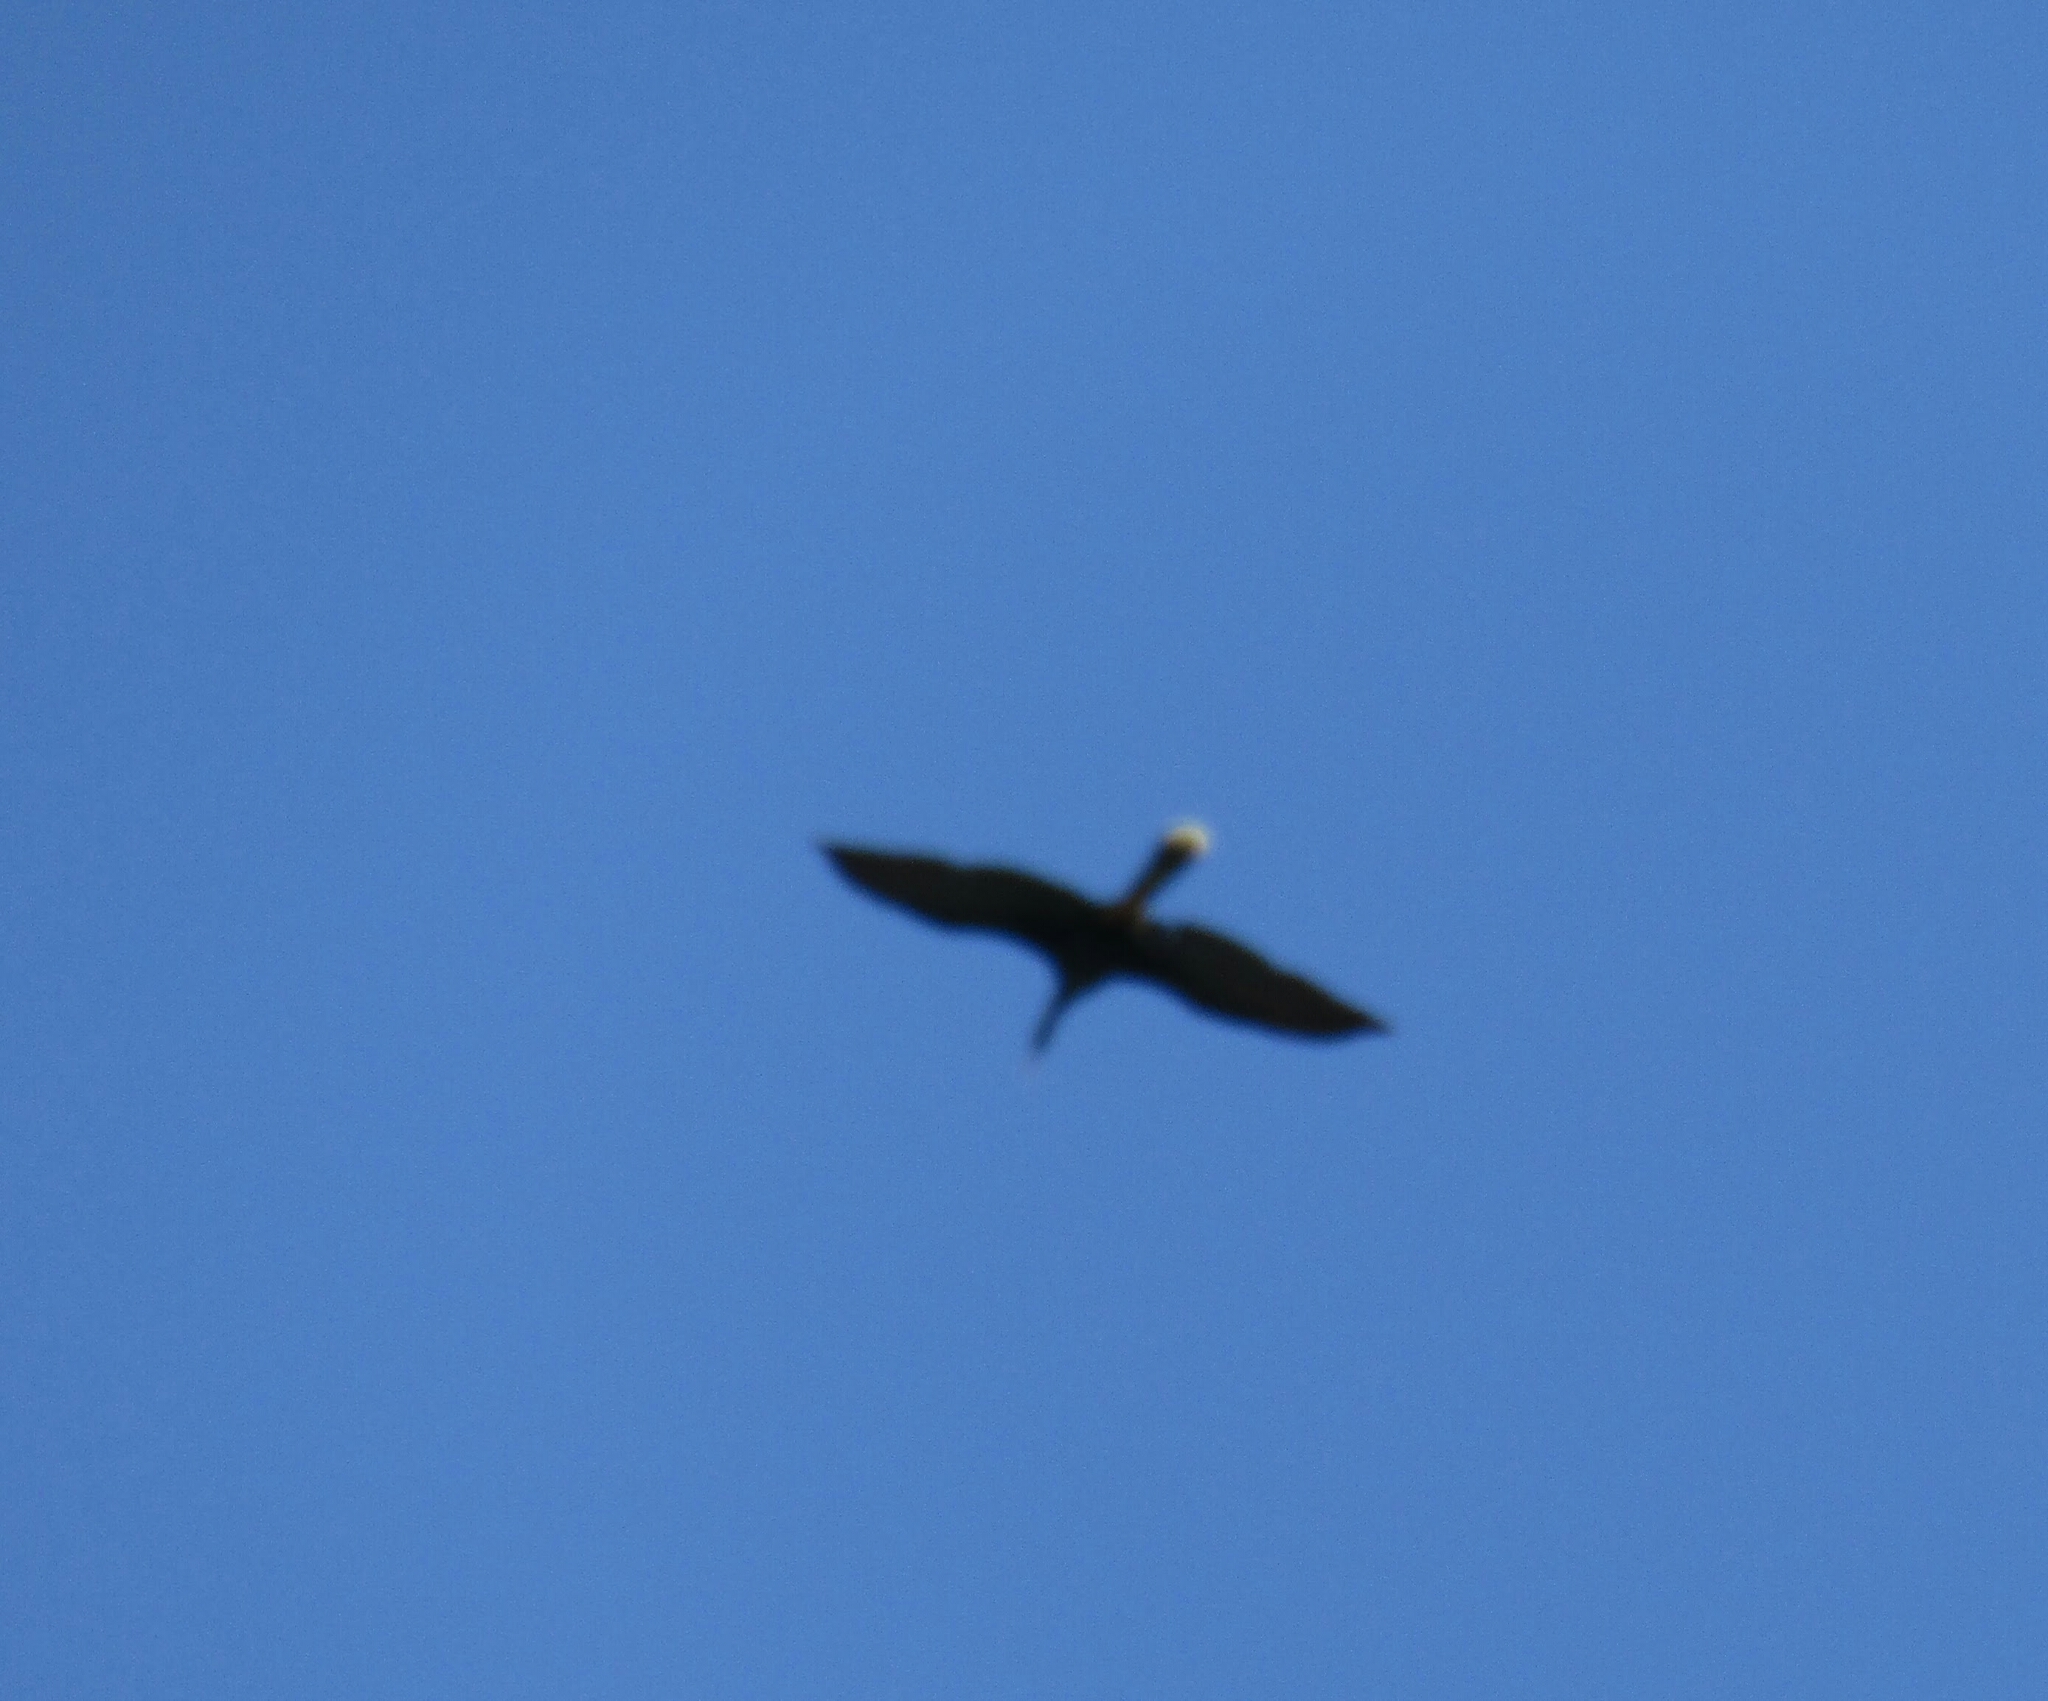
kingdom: Animalia
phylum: Chordata
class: Aves
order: Suliformes
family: Anhingidae
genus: Anhinga
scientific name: Anhinga anhinga
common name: Anhinga
